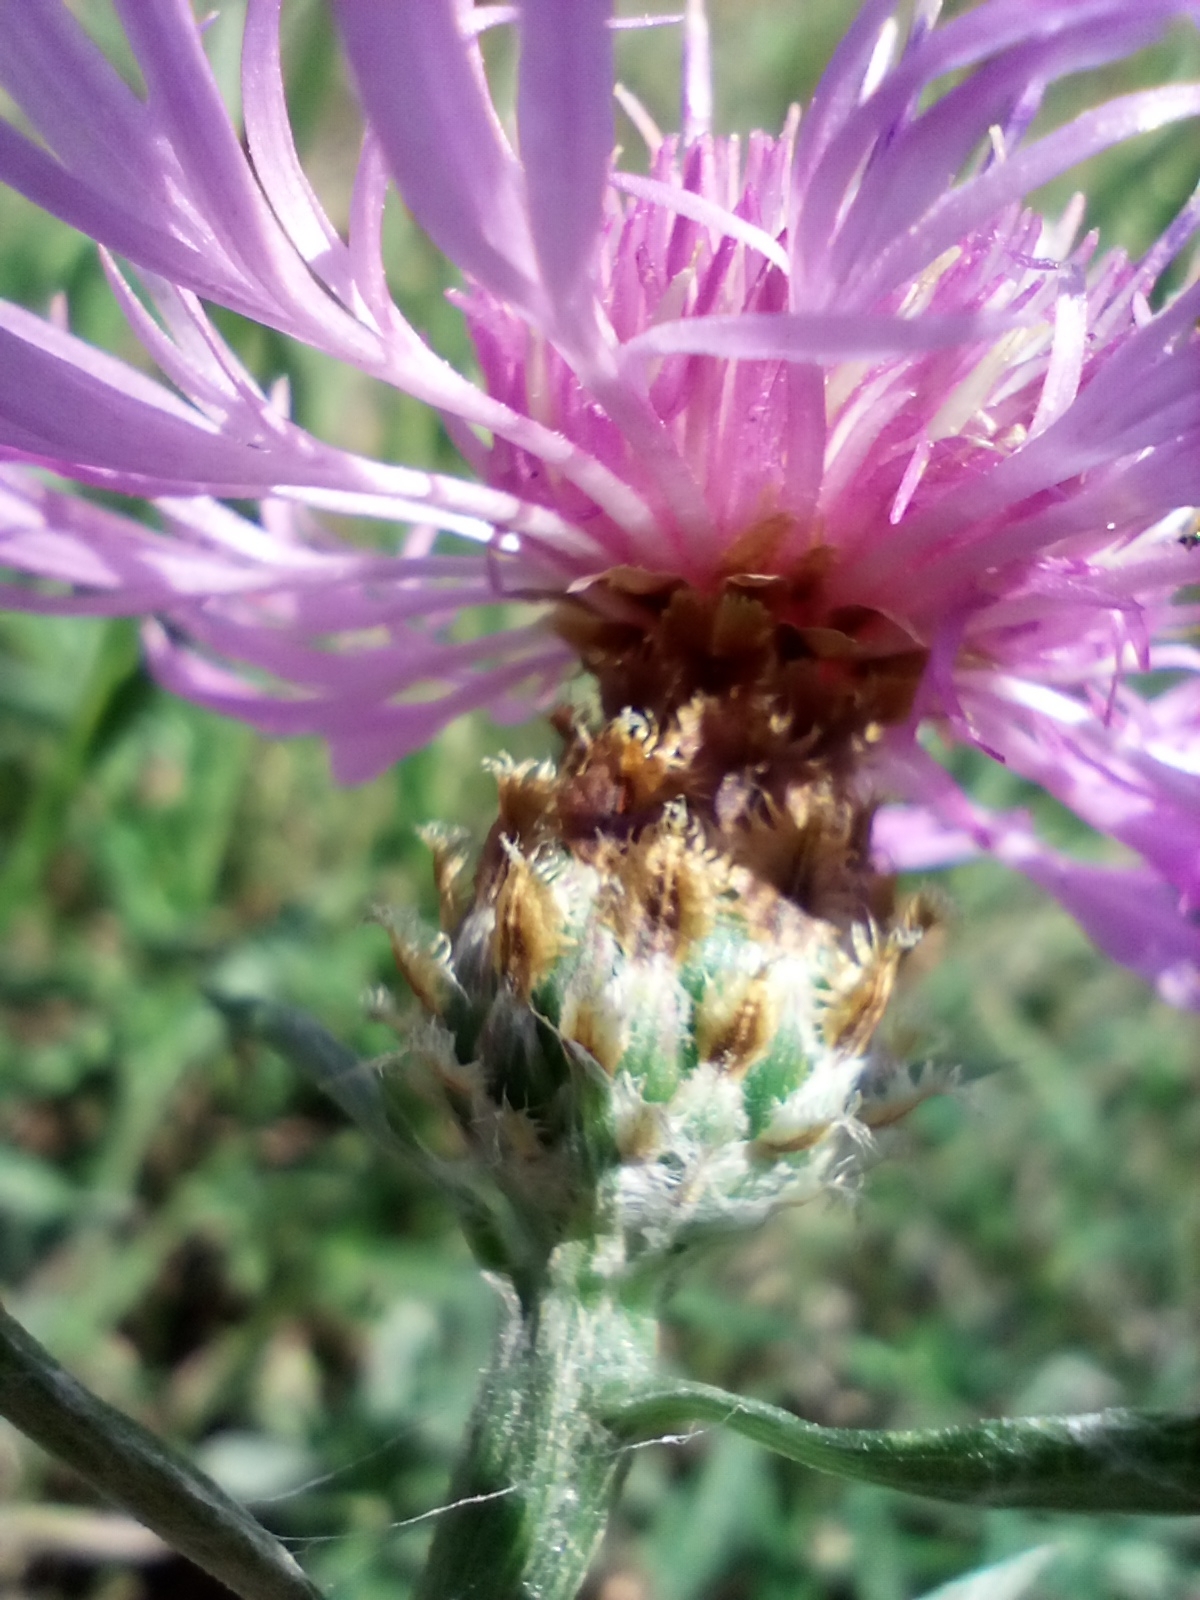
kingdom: Plantae
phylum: Tracheophyta
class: Magnoliopsida
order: Asterales
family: Asteraceae
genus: Centaurea
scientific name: Centaurea fleischeri
